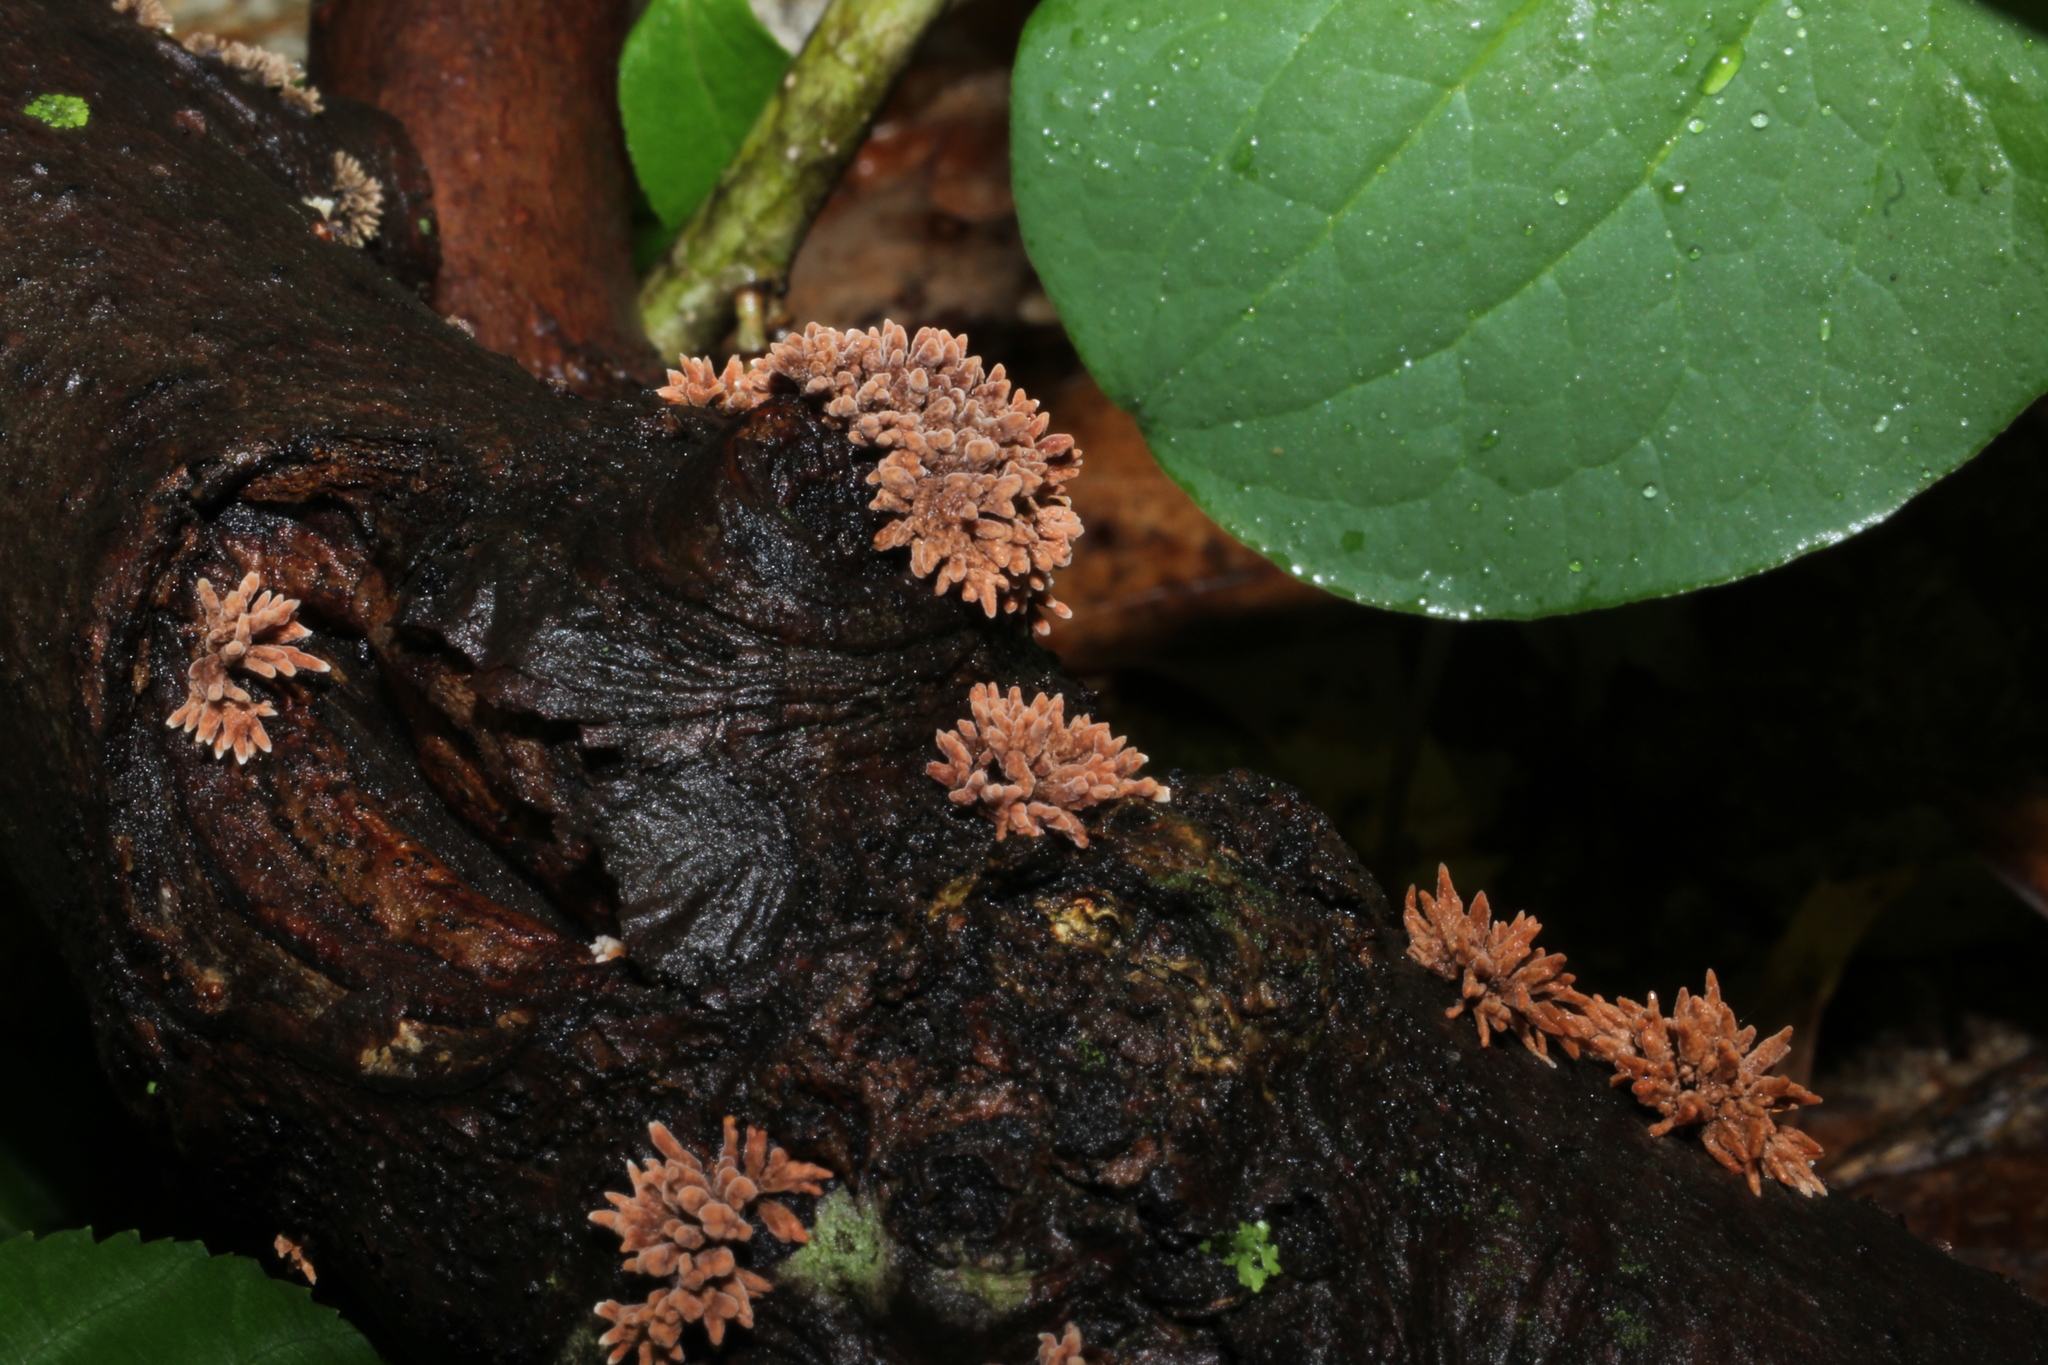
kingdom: Fungi
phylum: Ascomycota
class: Sordariomycetes
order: Xylariales
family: Hypoxylaceae
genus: Hypoxylon
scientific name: Hypoxylon howeanum
